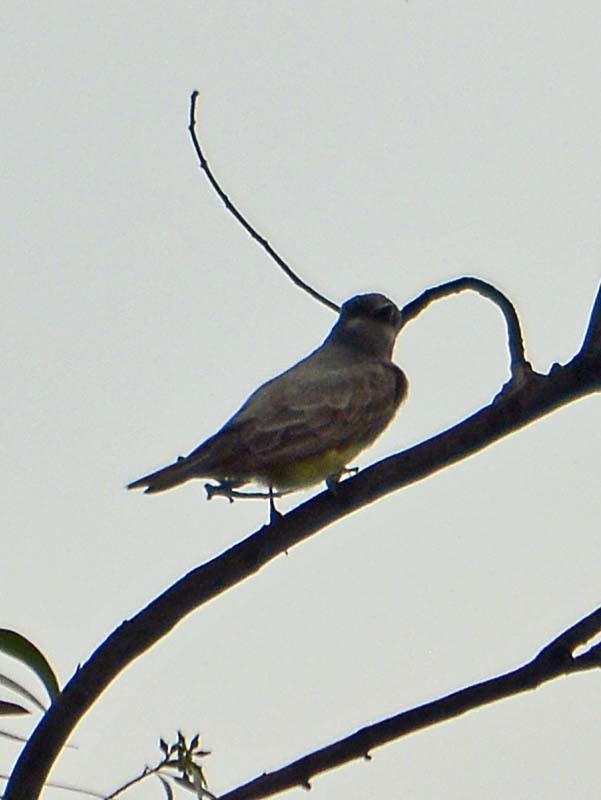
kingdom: Animalia
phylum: Chordata
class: Aves
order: Passeriformes
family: Tyrannidae
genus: Tyrannus
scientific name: Tyrannus vociferans
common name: Cassin's kingbird
